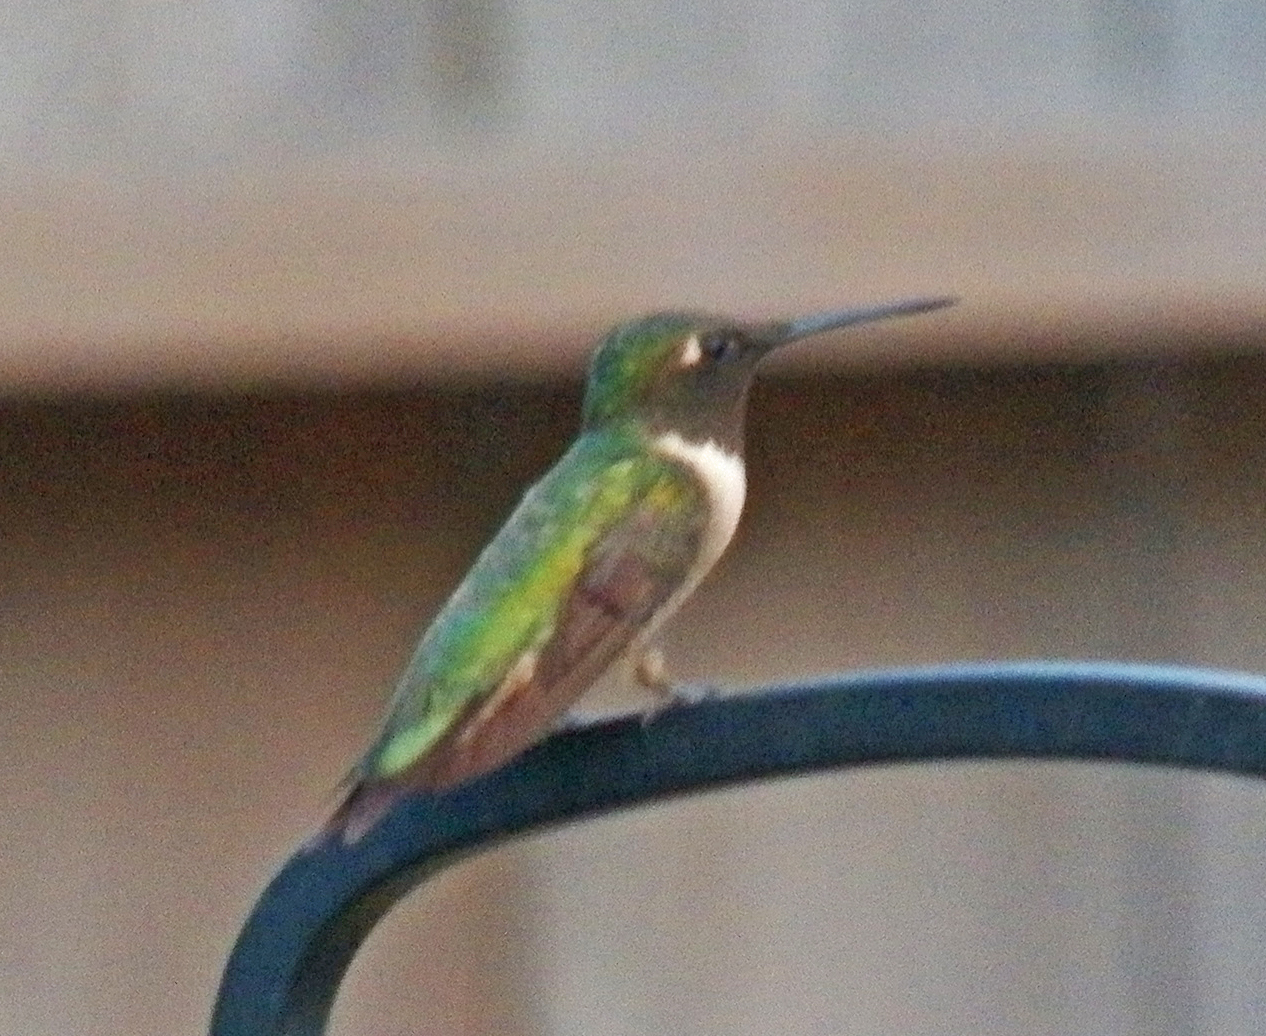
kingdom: Animalia
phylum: Chordata
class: Aves
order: Apodiformes
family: Trochilidae
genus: Archilochus
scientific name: Archilochus colubris
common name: Ruby-throated hummingbird
